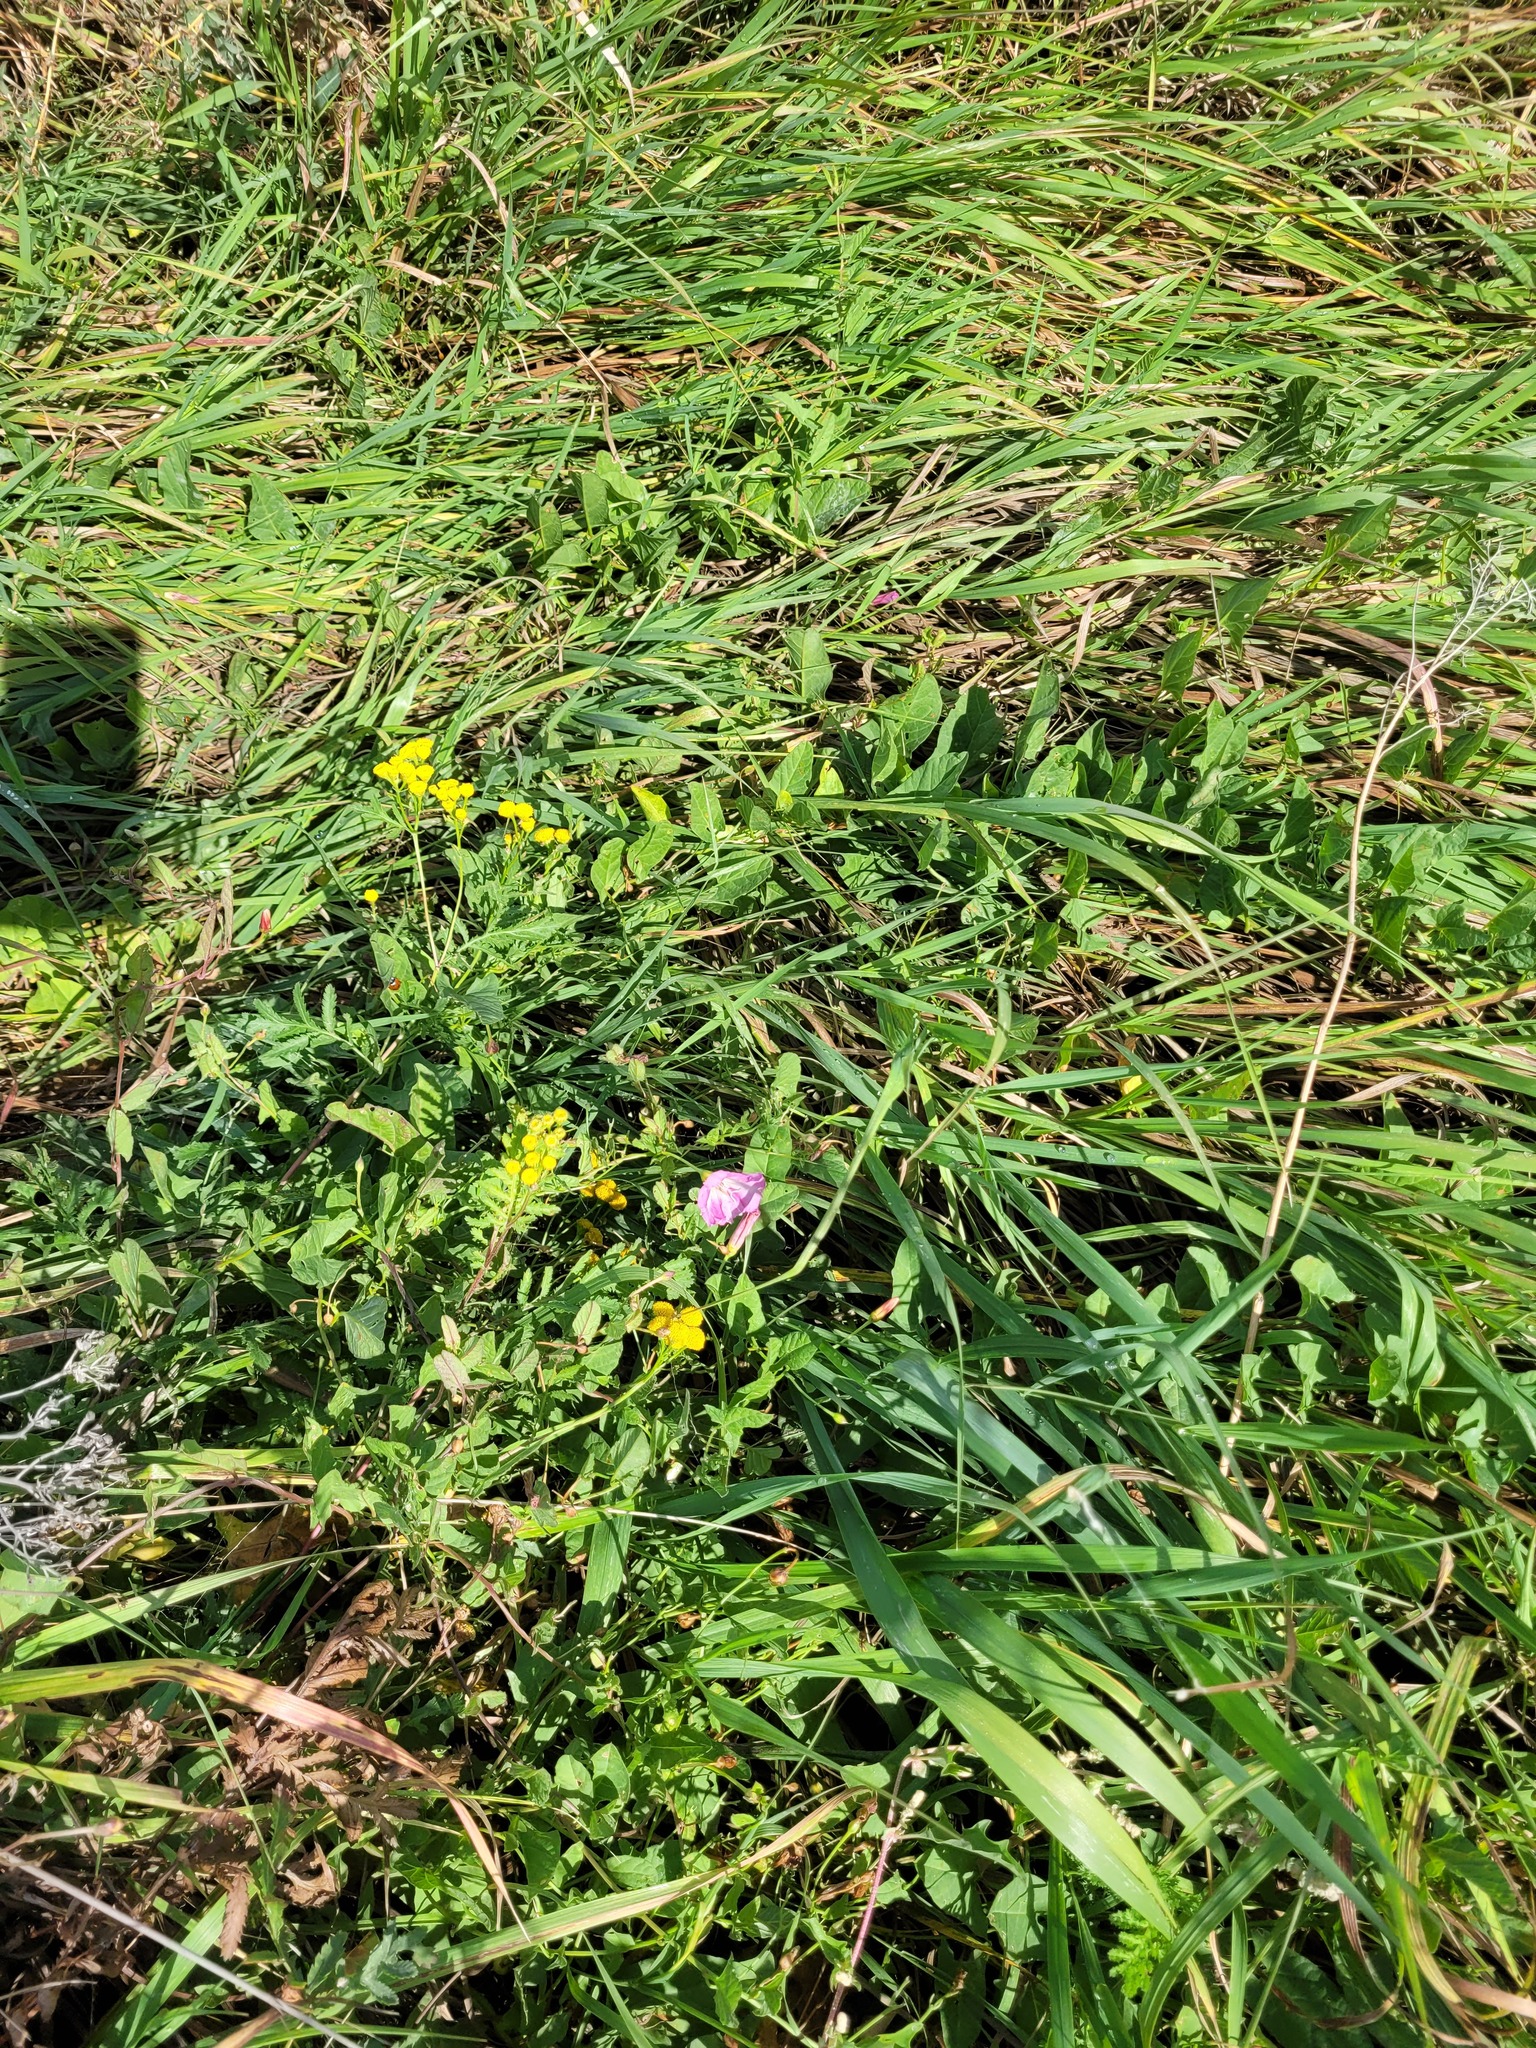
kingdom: Plantae
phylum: Tracheophyta
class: Magnoliopsida
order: Solanales
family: Convolvulaceae
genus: Convolvulus
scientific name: Convolvulus arvensis
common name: Field bindweed
